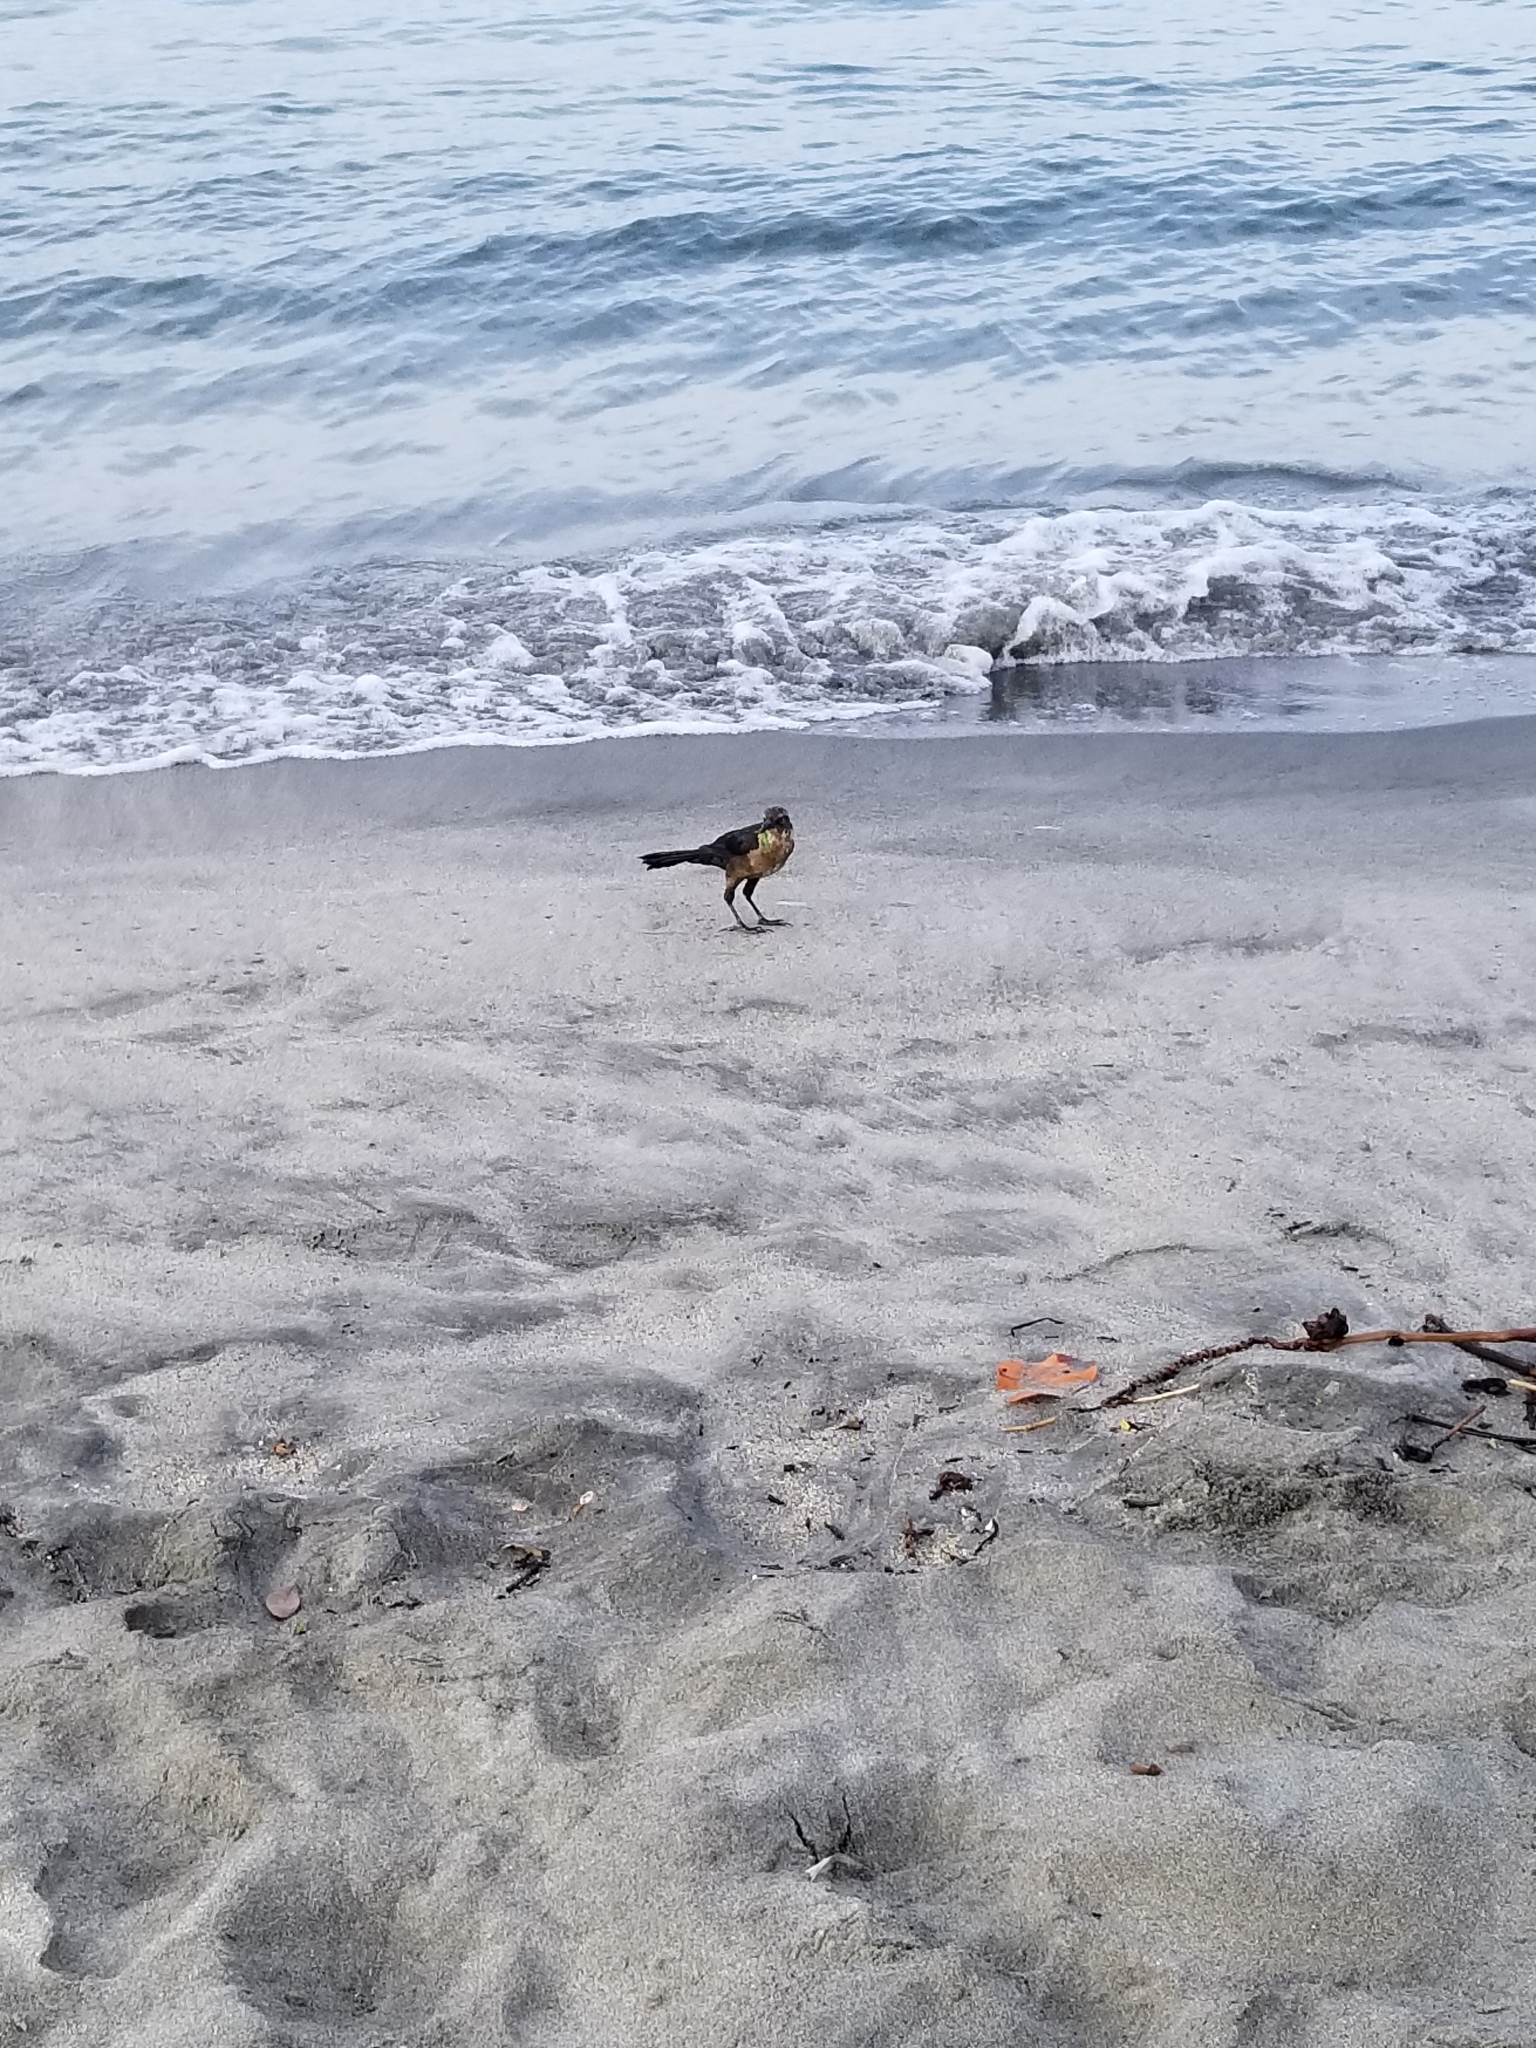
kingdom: Animalia
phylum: Chordata
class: Aves
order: Passeriformes
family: Icteridae
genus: Quiscalus
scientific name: Quiscalus mexicanus
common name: Great-tailed grackle
